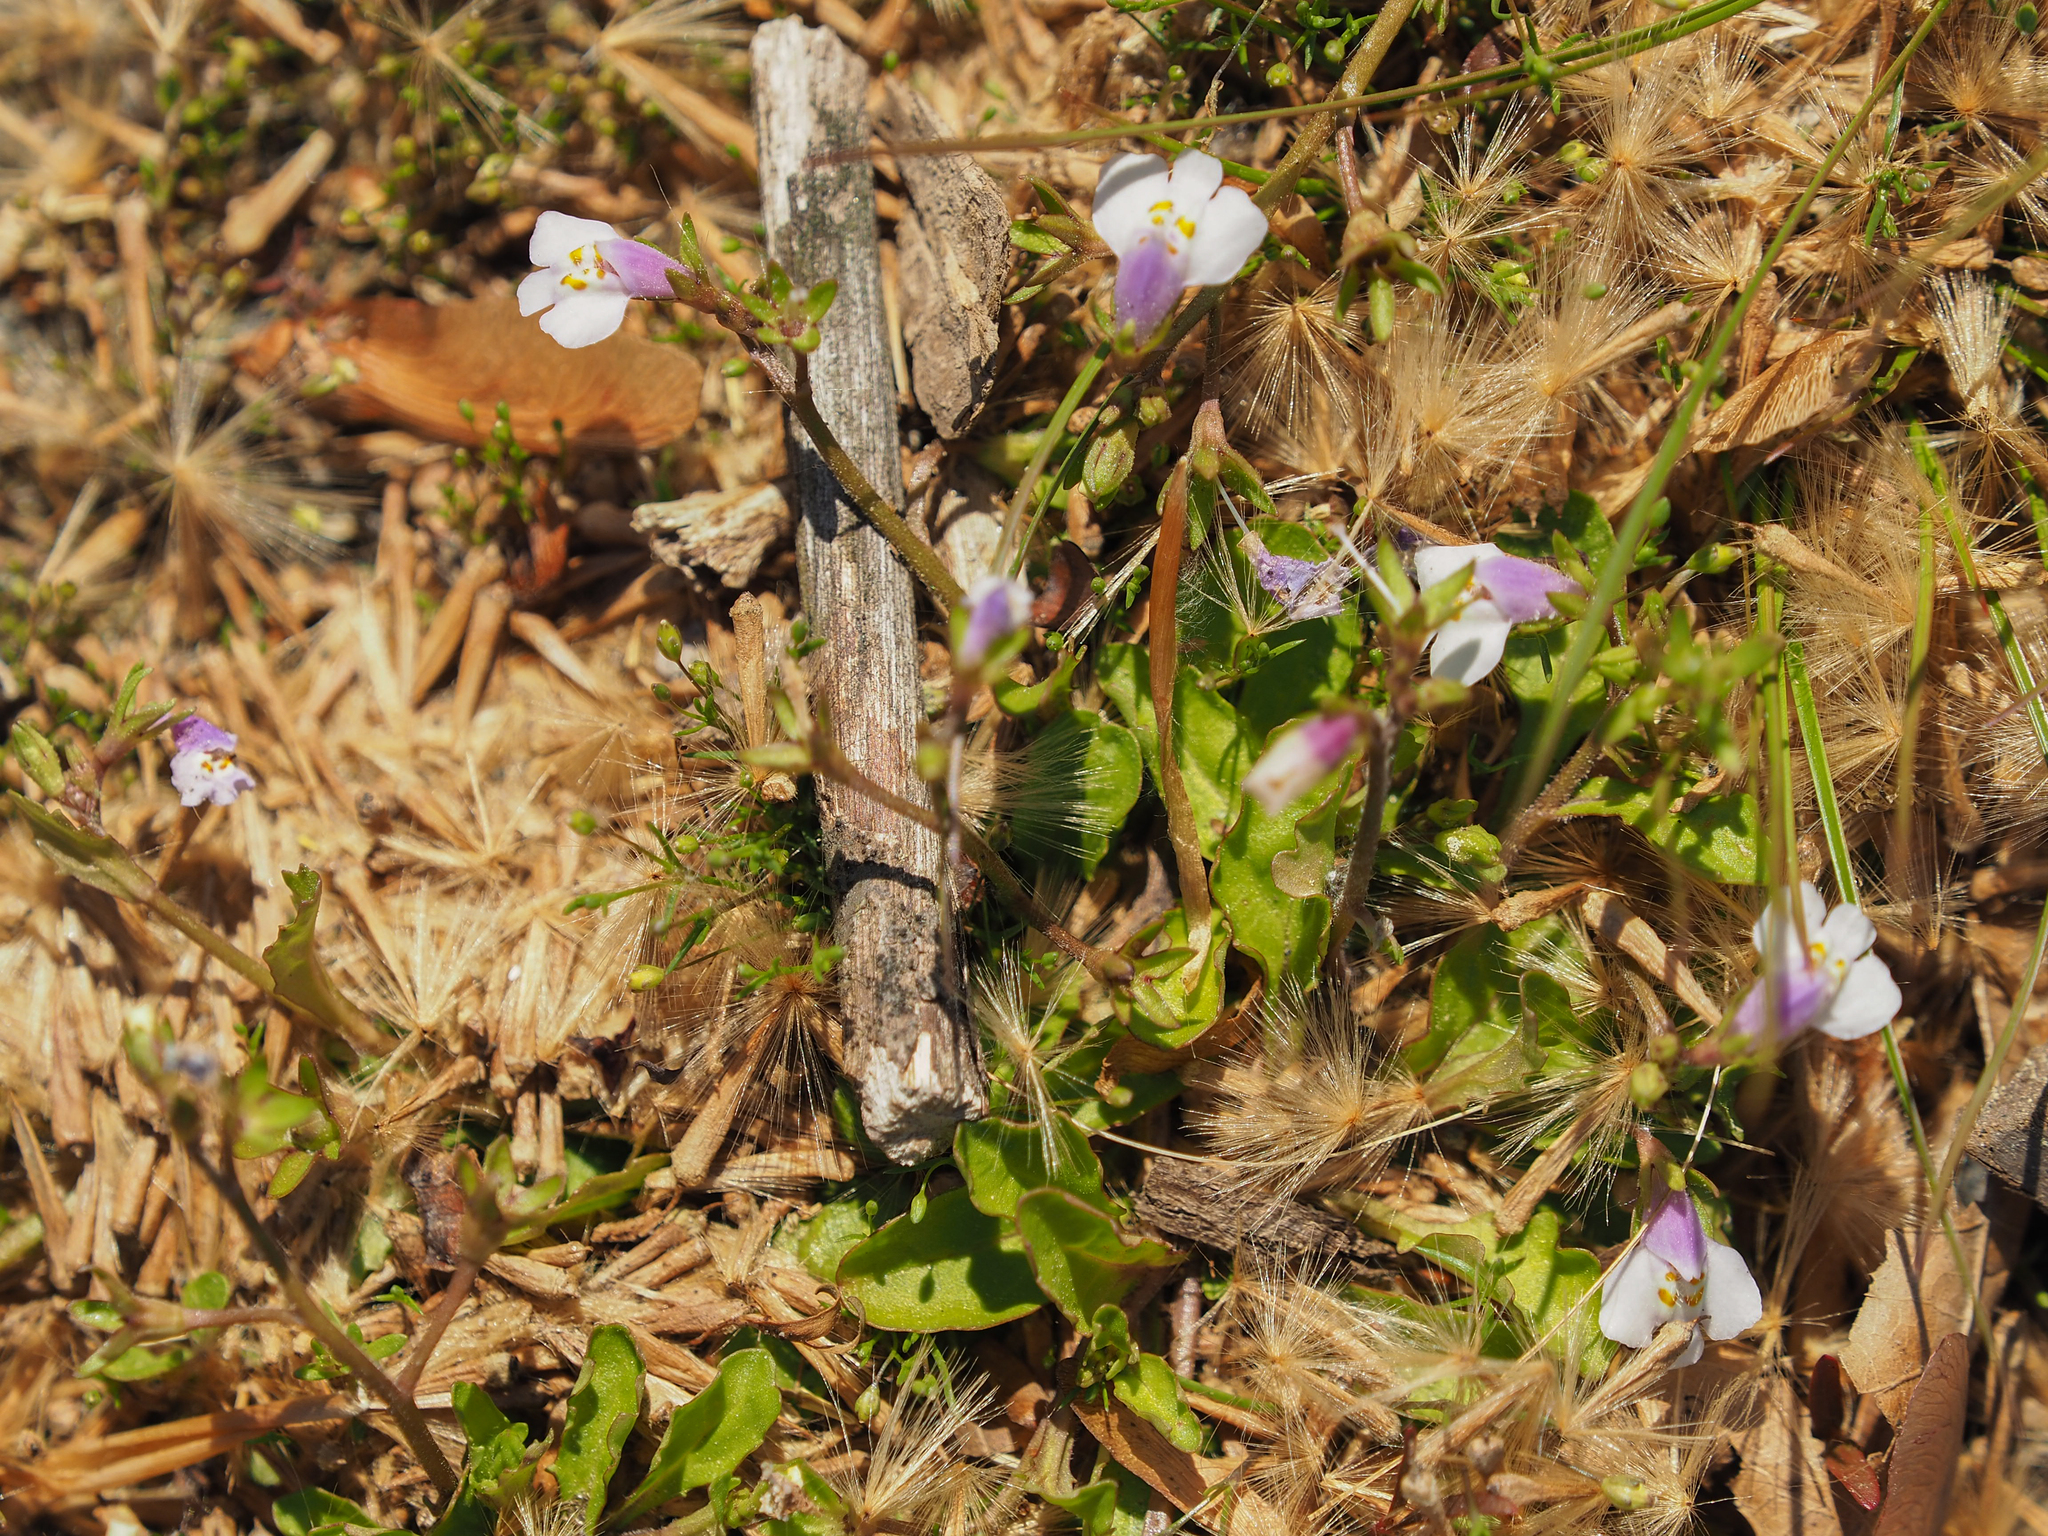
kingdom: Plantae
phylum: Tracheophyta
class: Magnoliopsida
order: Lamiales
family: Mazaceae
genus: Mazus
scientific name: Mazus pumilus
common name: Japanese mazus
